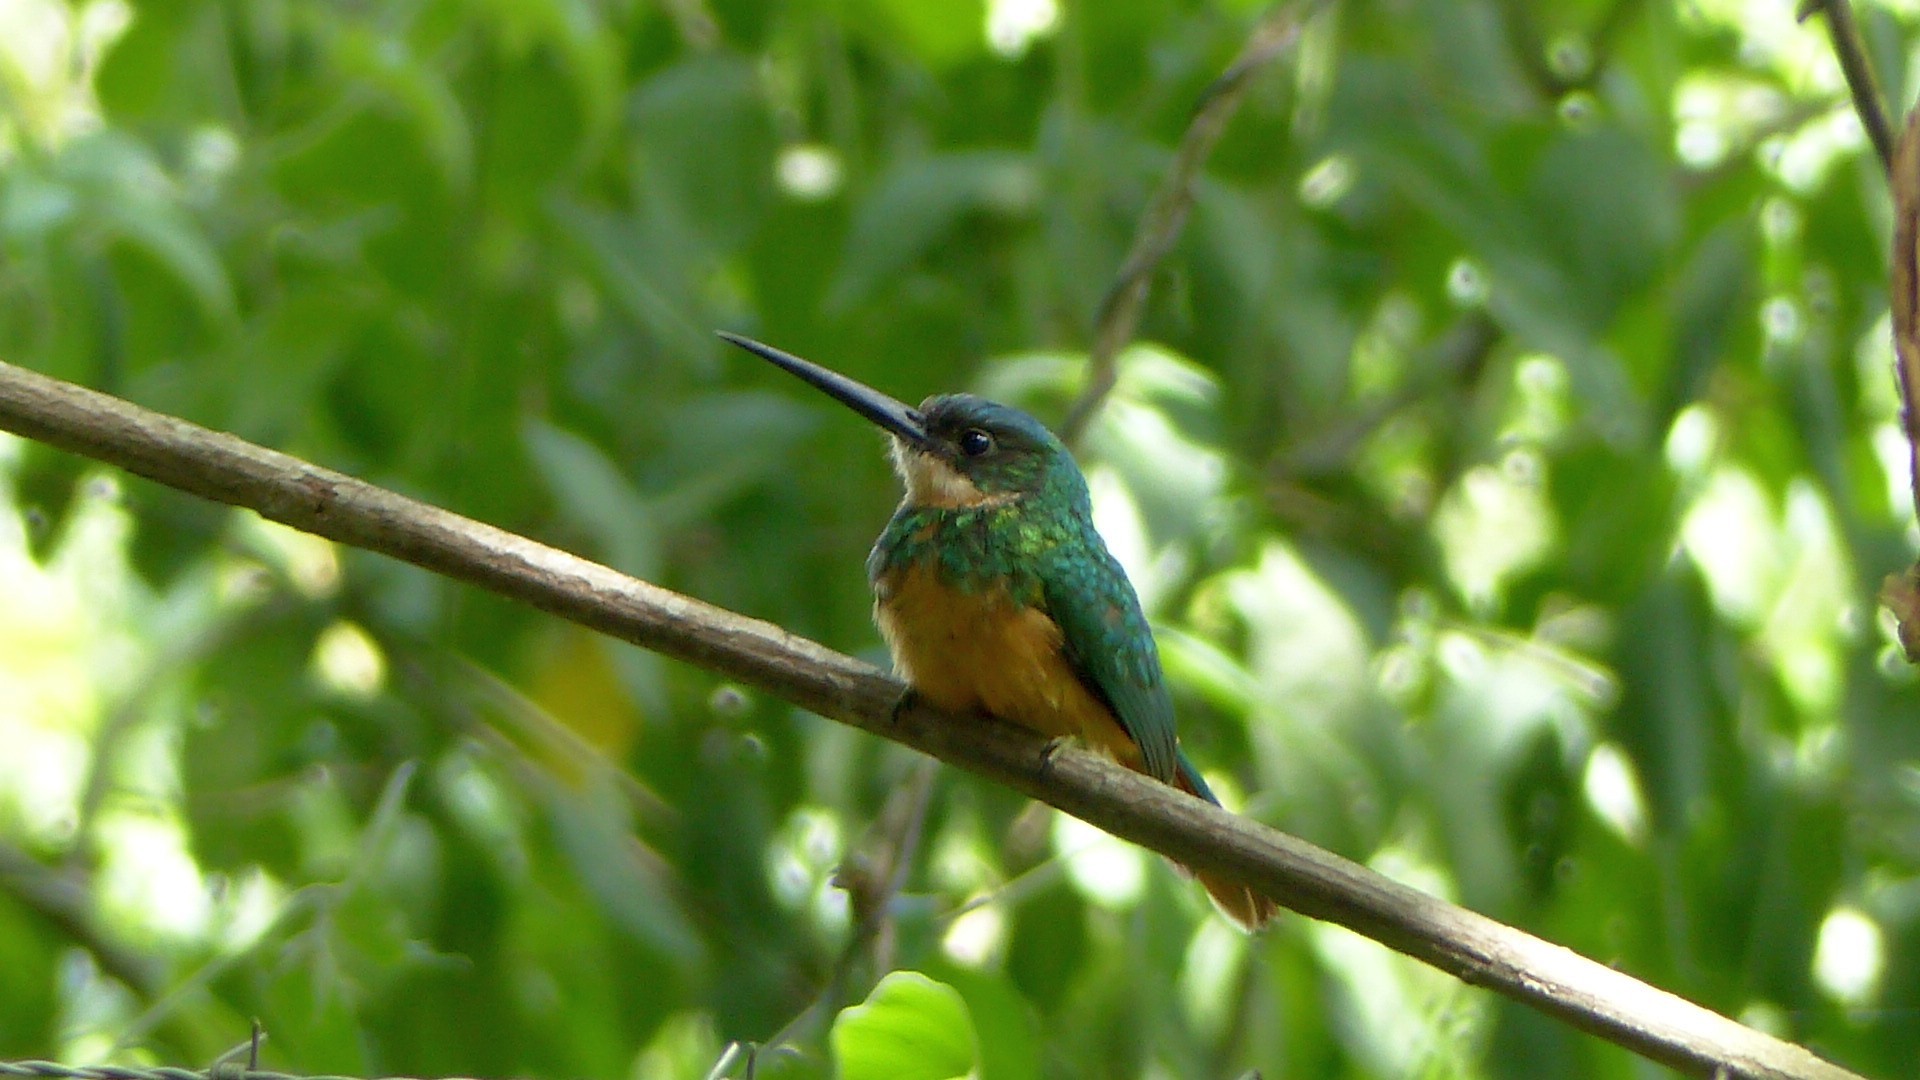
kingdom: Animalia
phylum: Chordata
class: Aves
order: Piciformes
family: Galbulidae
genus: Galbula
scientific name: Galbula ruficauda
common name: Rufous-tailed jacamar
